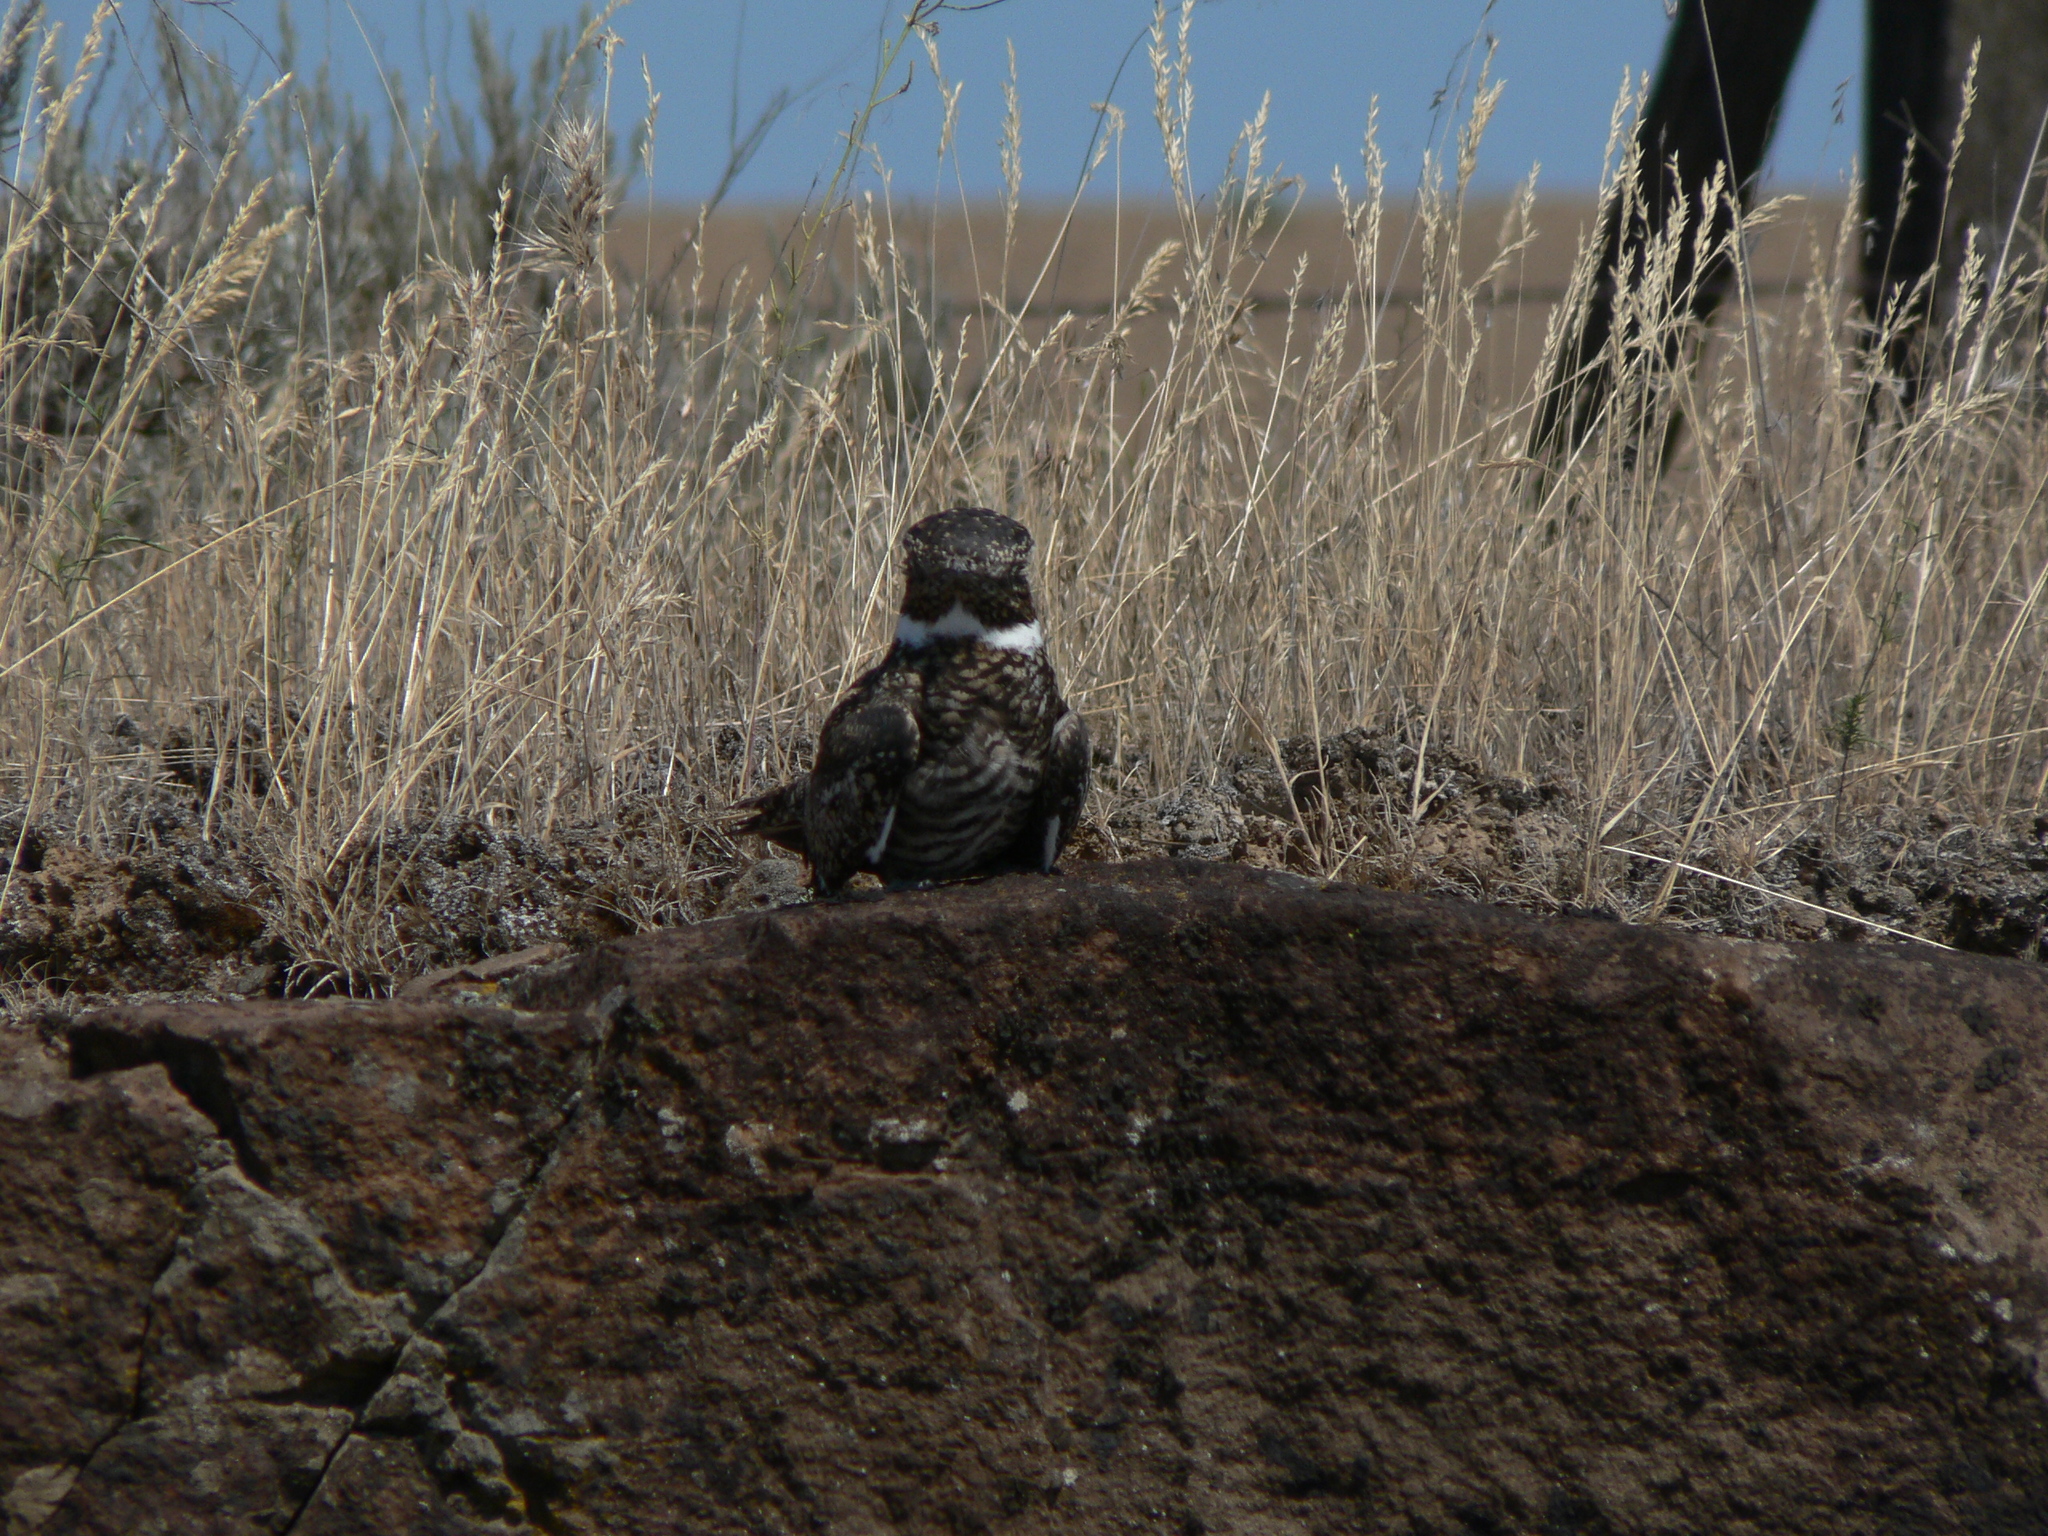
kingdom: Animalia
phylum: Chordata
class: Aves
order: Caprimulgiformes
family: Caprimulgidae
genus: Chordeiles
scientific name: Chordeiles minor
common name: Common nighthawk
